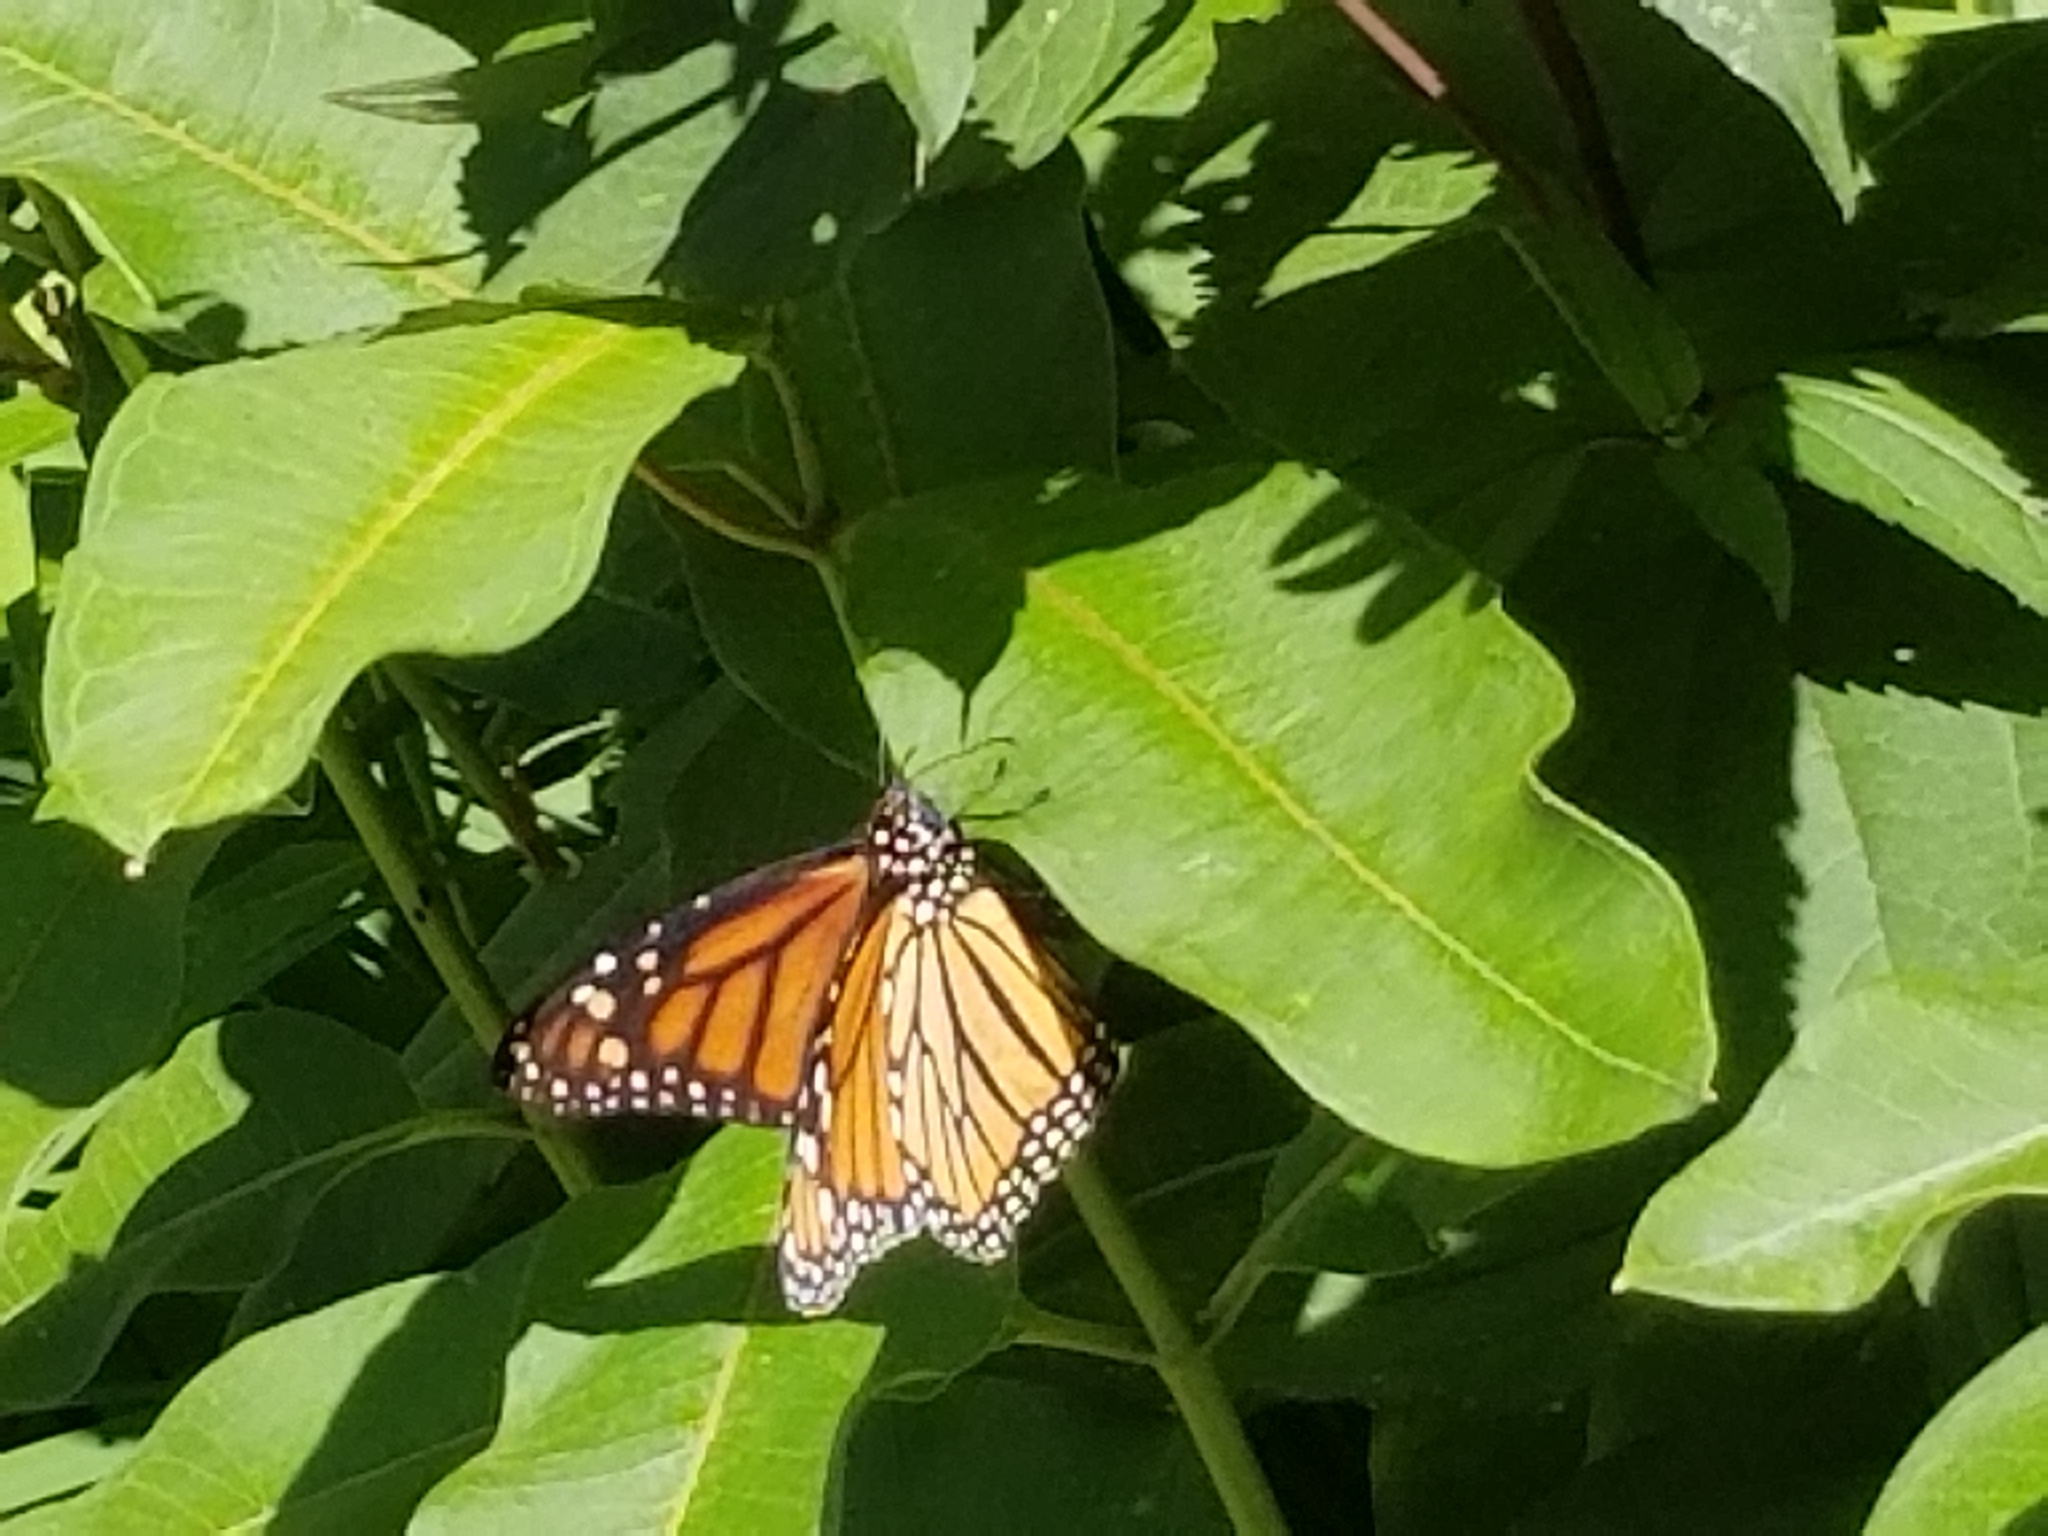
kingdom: Animalia
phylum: Arthropoda
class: Insecta
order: Lepidoptera
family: Nymphalidae
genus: Danaus
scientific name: Danaus plexippus
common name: Monarch
